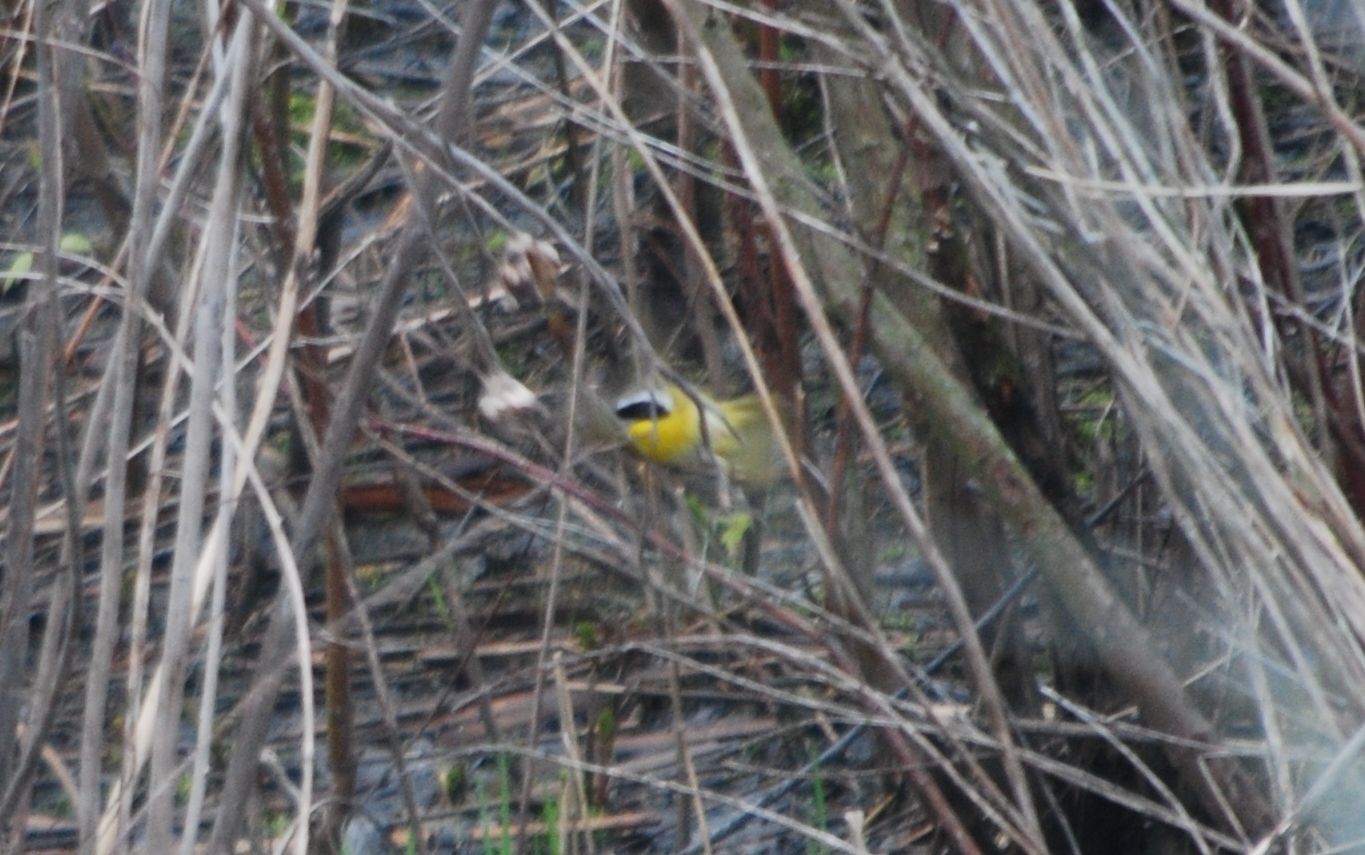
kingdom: Animalia
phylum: Chordata
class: Aves
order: Passeriformes
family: Parulidae
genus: Geothlypis
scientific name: Geothlypis trichas
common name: Common yellowthroat
